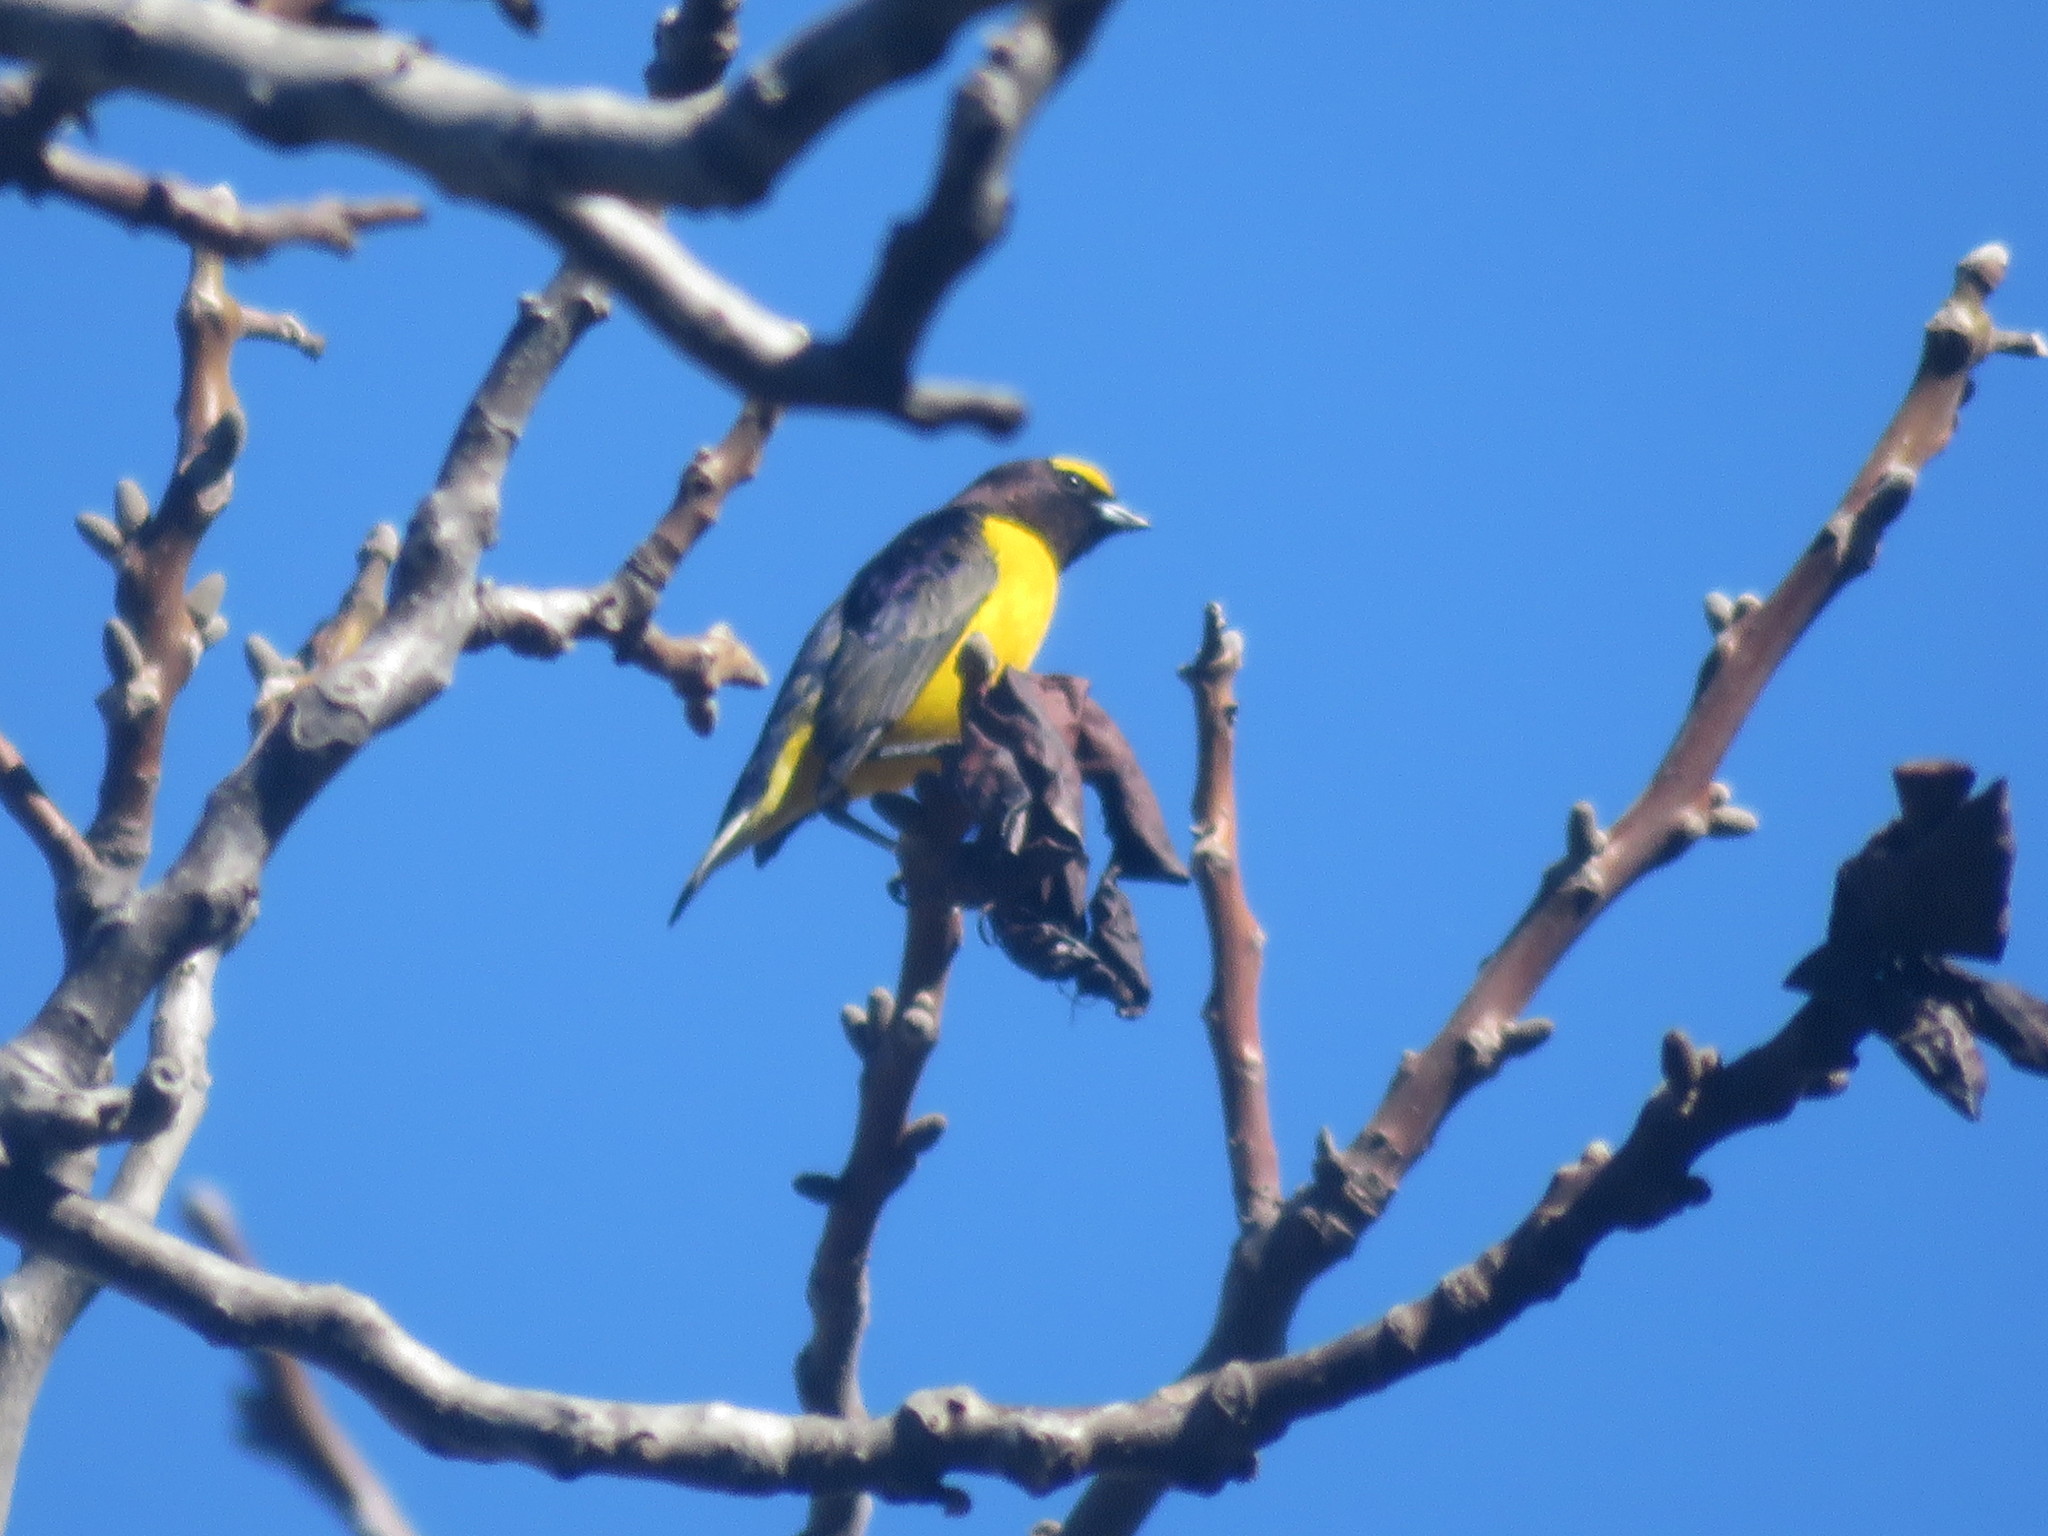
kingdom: Animalia
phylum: Chordata
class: Aves
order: Passeriformes
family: Fringillidae
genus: Euphonia
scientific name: Euphonia chlorotica
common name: Purple-throated euphonia
